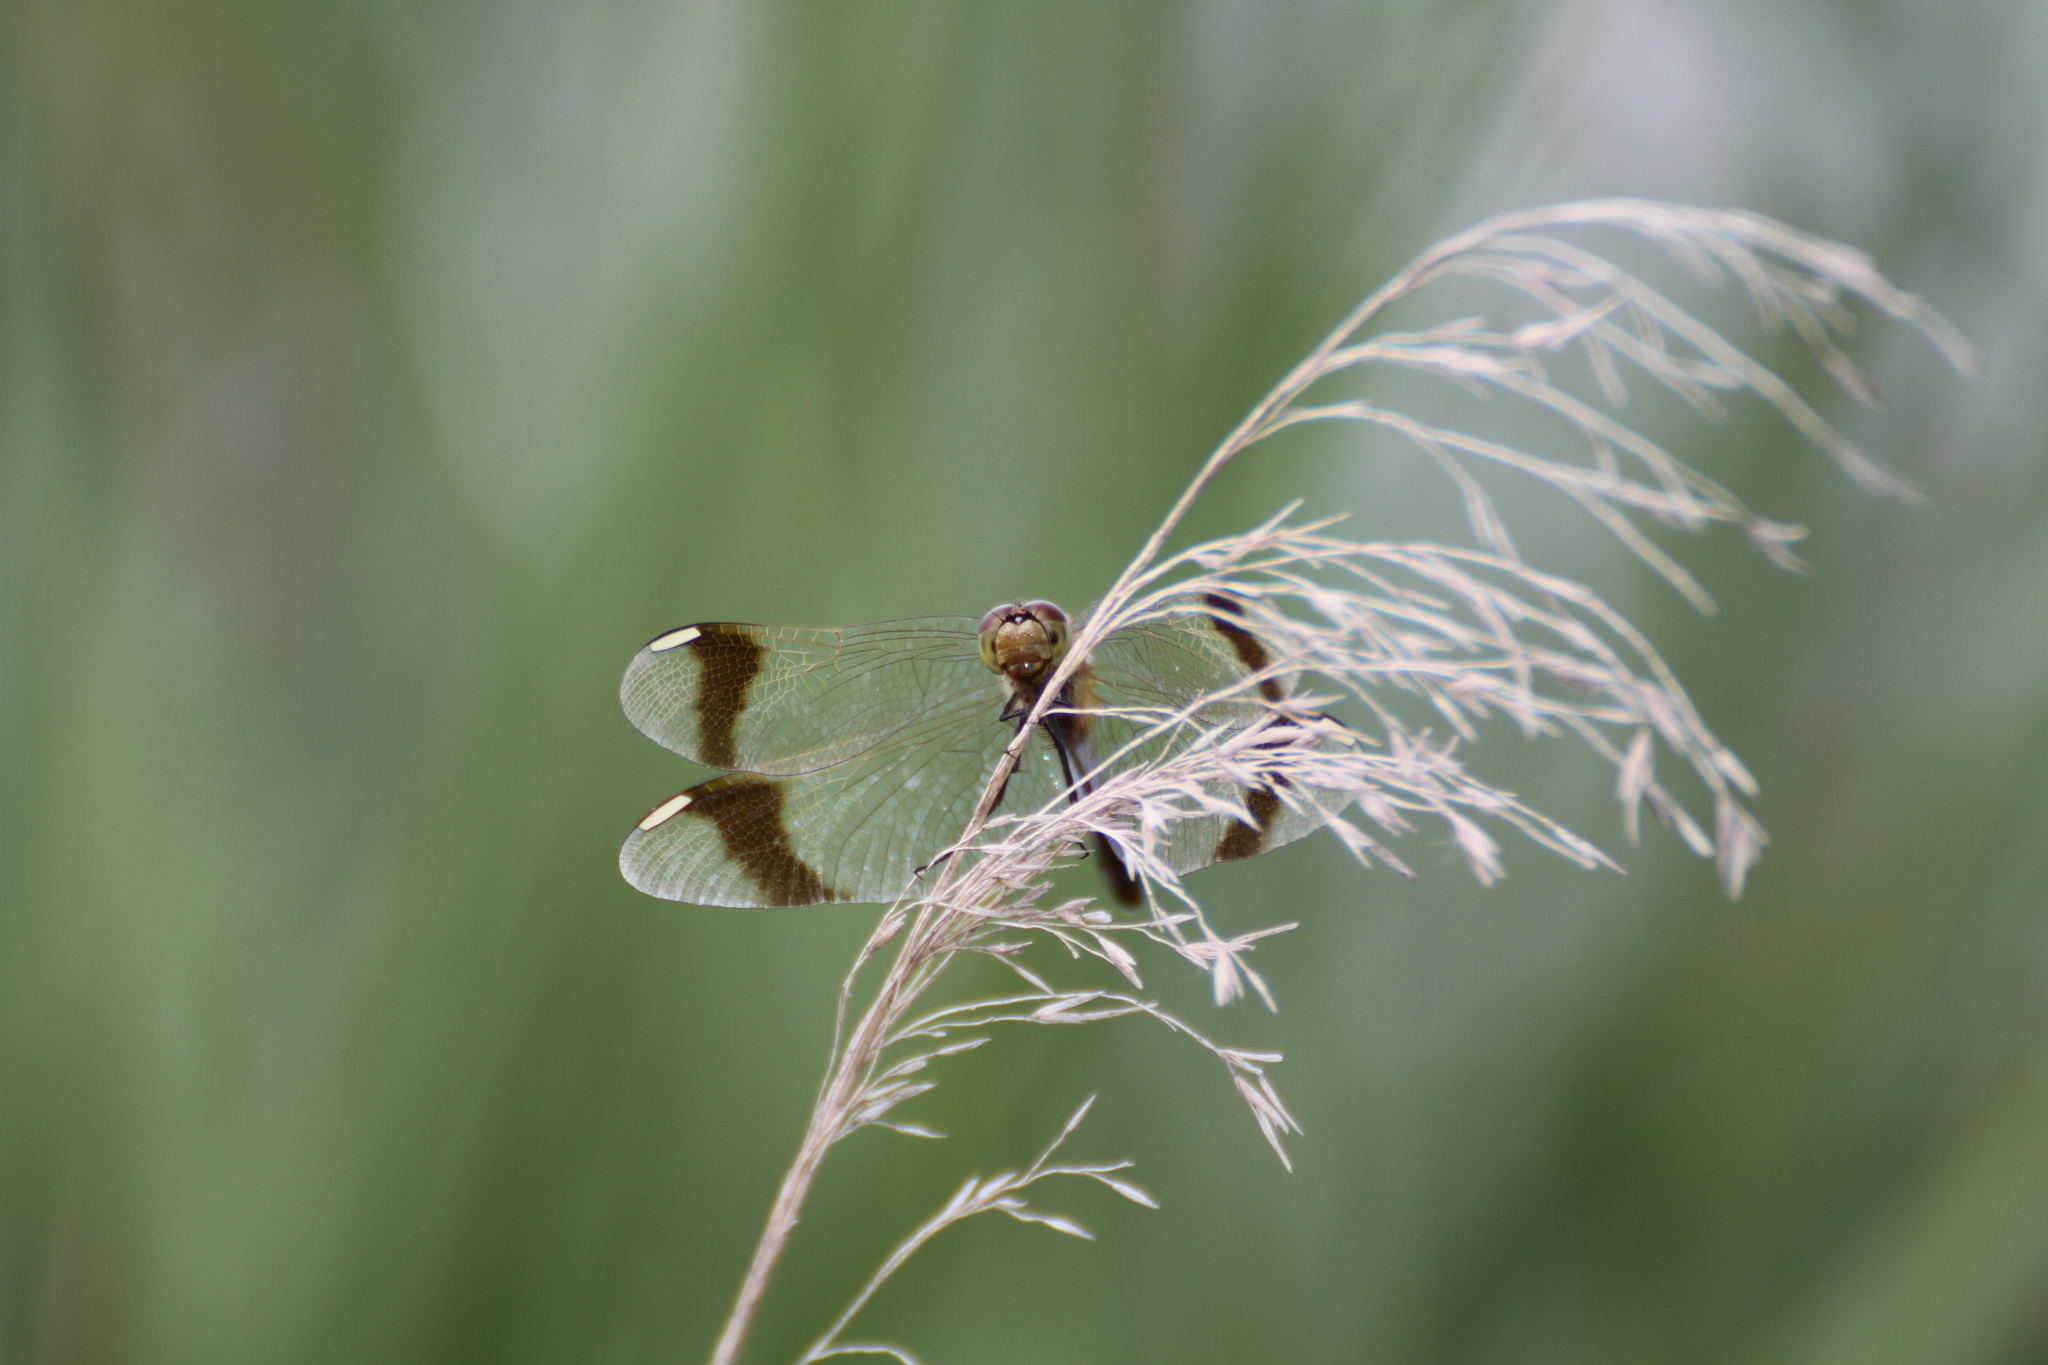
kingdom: Animalia
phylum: Arthropoda
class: Insecta
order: Odonata
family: Libellulidae
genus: Sympetrum
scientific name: Sympetrum pedemontanum
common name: Banded darter
